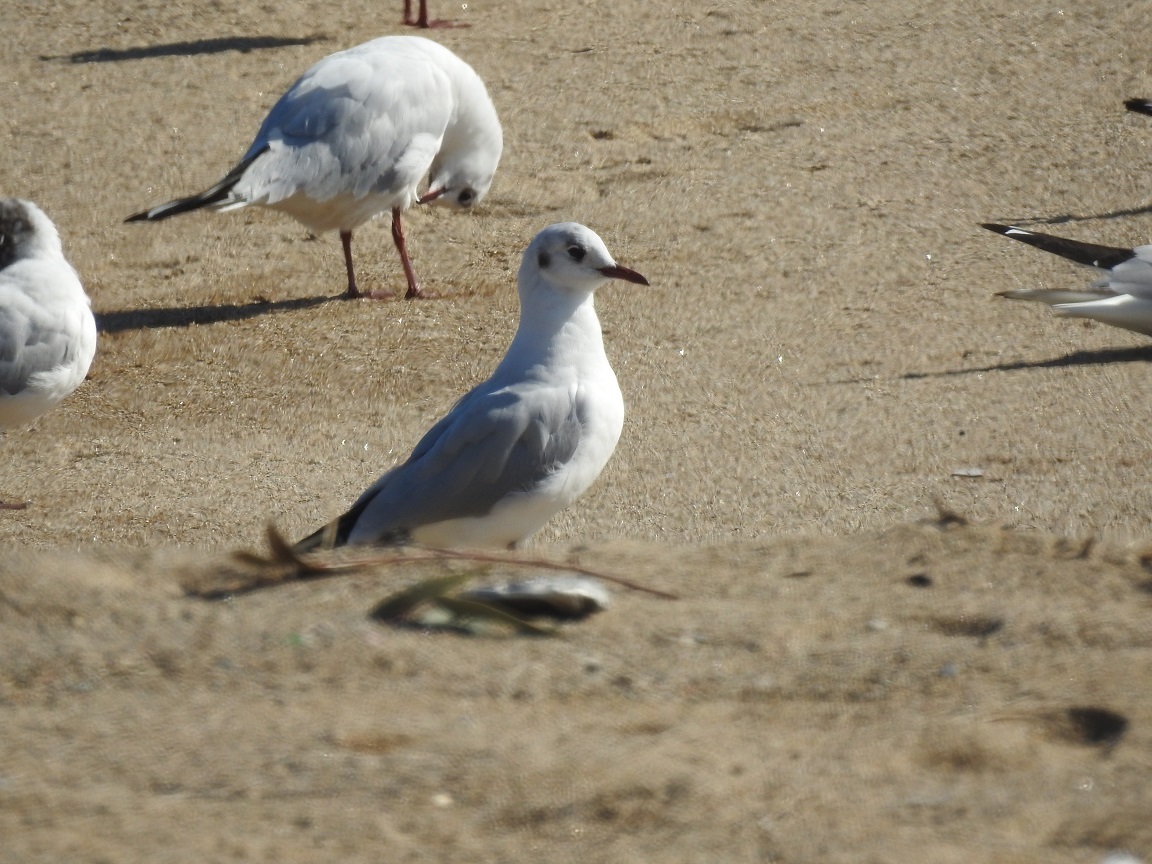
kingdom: Animalia
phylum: Chordata
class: Aves
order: Charadriiformes
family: Laridae
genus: Chroicocephalus
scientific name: Chroicocephalus ridibundus
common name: Black-headed gull
